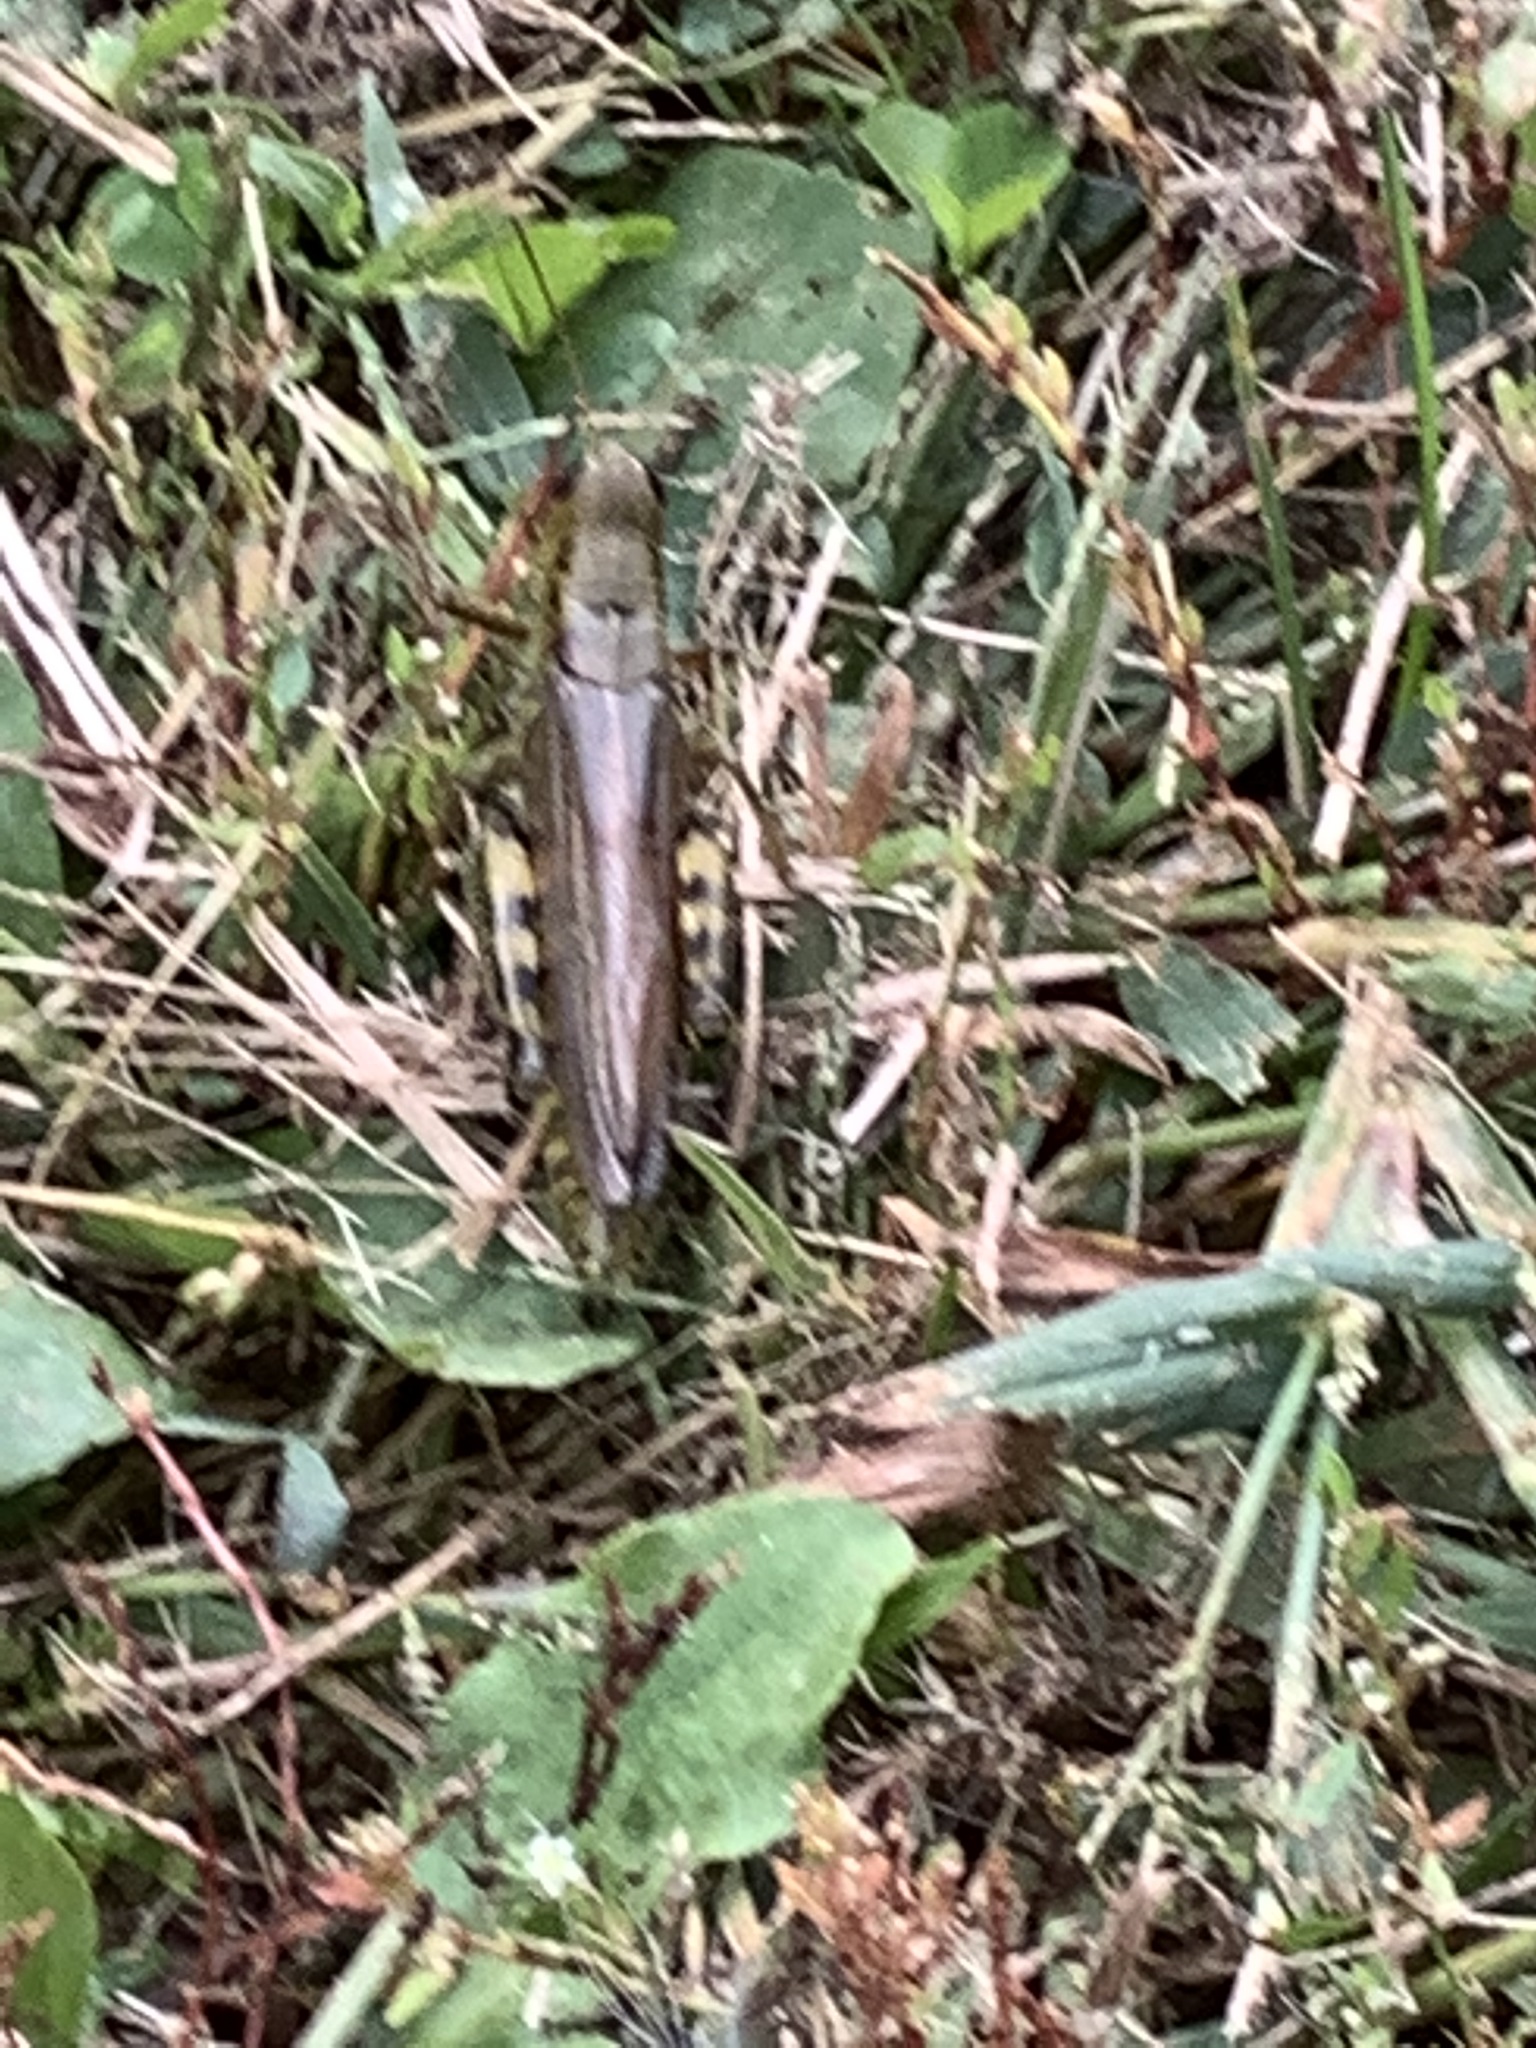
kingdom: Animalia
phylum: Arthropoda
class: Insecta
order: Orthoptera
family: Acrididae
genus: Melanoplus
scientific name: Melanoplus differentialis
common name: Differential grasshopper
